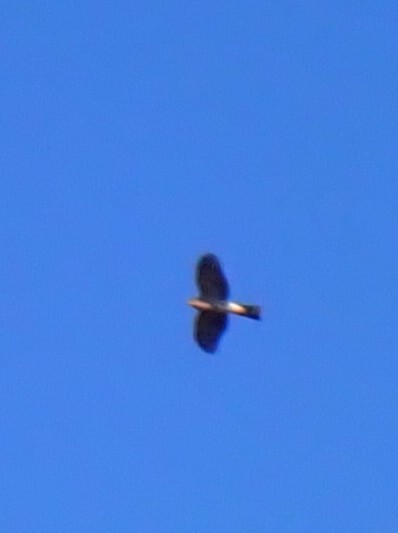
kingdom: Animalia
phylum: Chordata
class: Aves
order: Accipitriformes
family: Accipitridae
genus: Accipiter
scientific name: Accipiter striatus
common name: Sharp-shinned hawk
